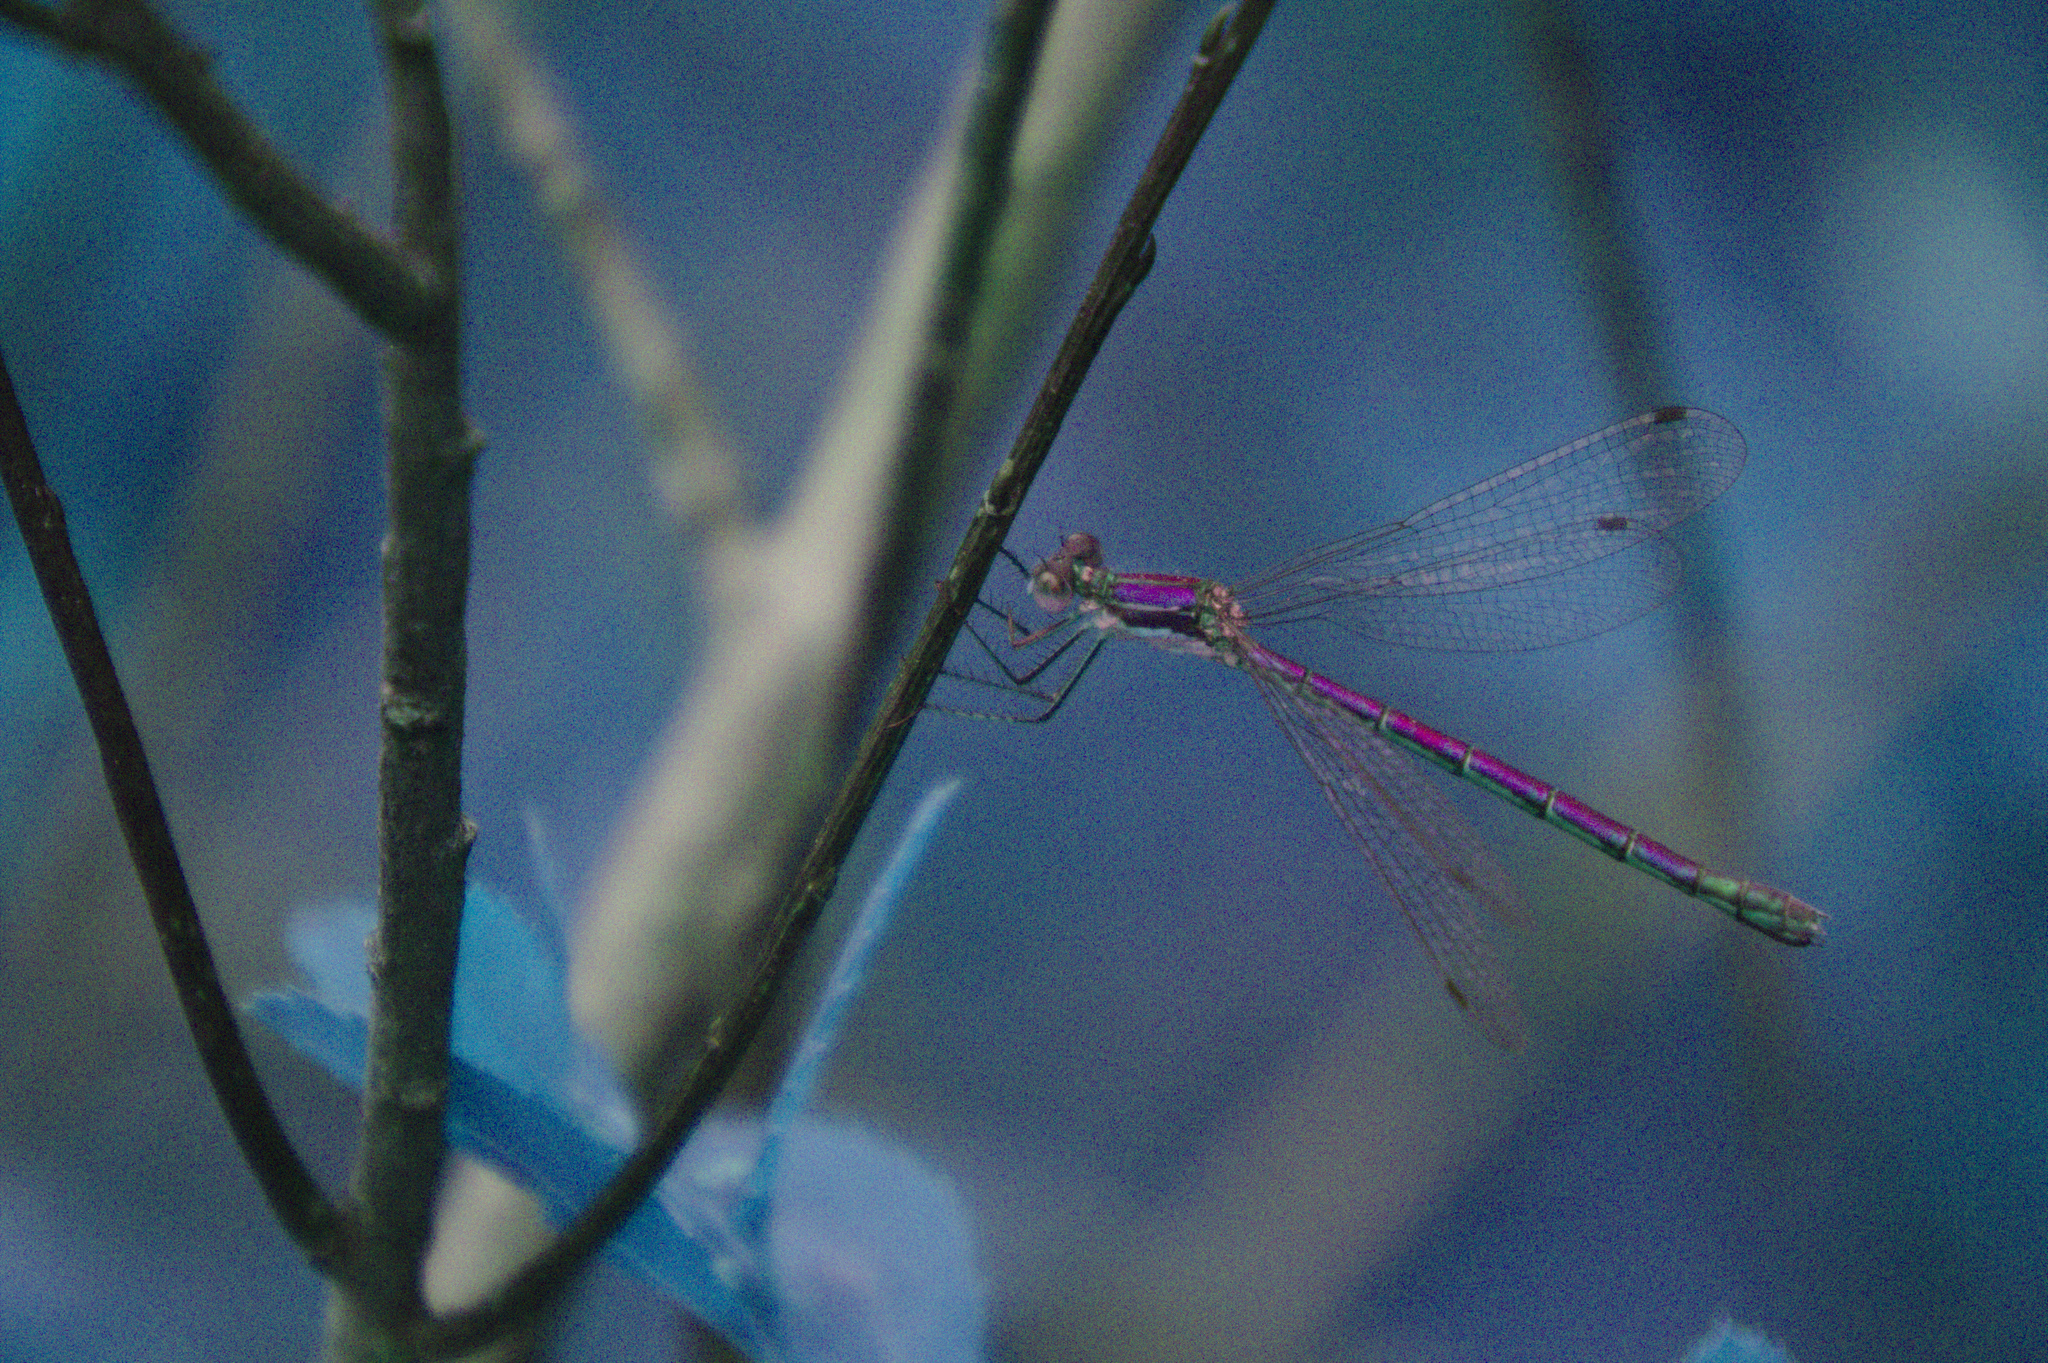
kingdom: Animalia
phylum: Arthropoda
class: Insecta
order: Odonata
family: Lestidae
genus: Lestes
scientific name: Lestes dryas
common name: Scarce emerald damselfly
